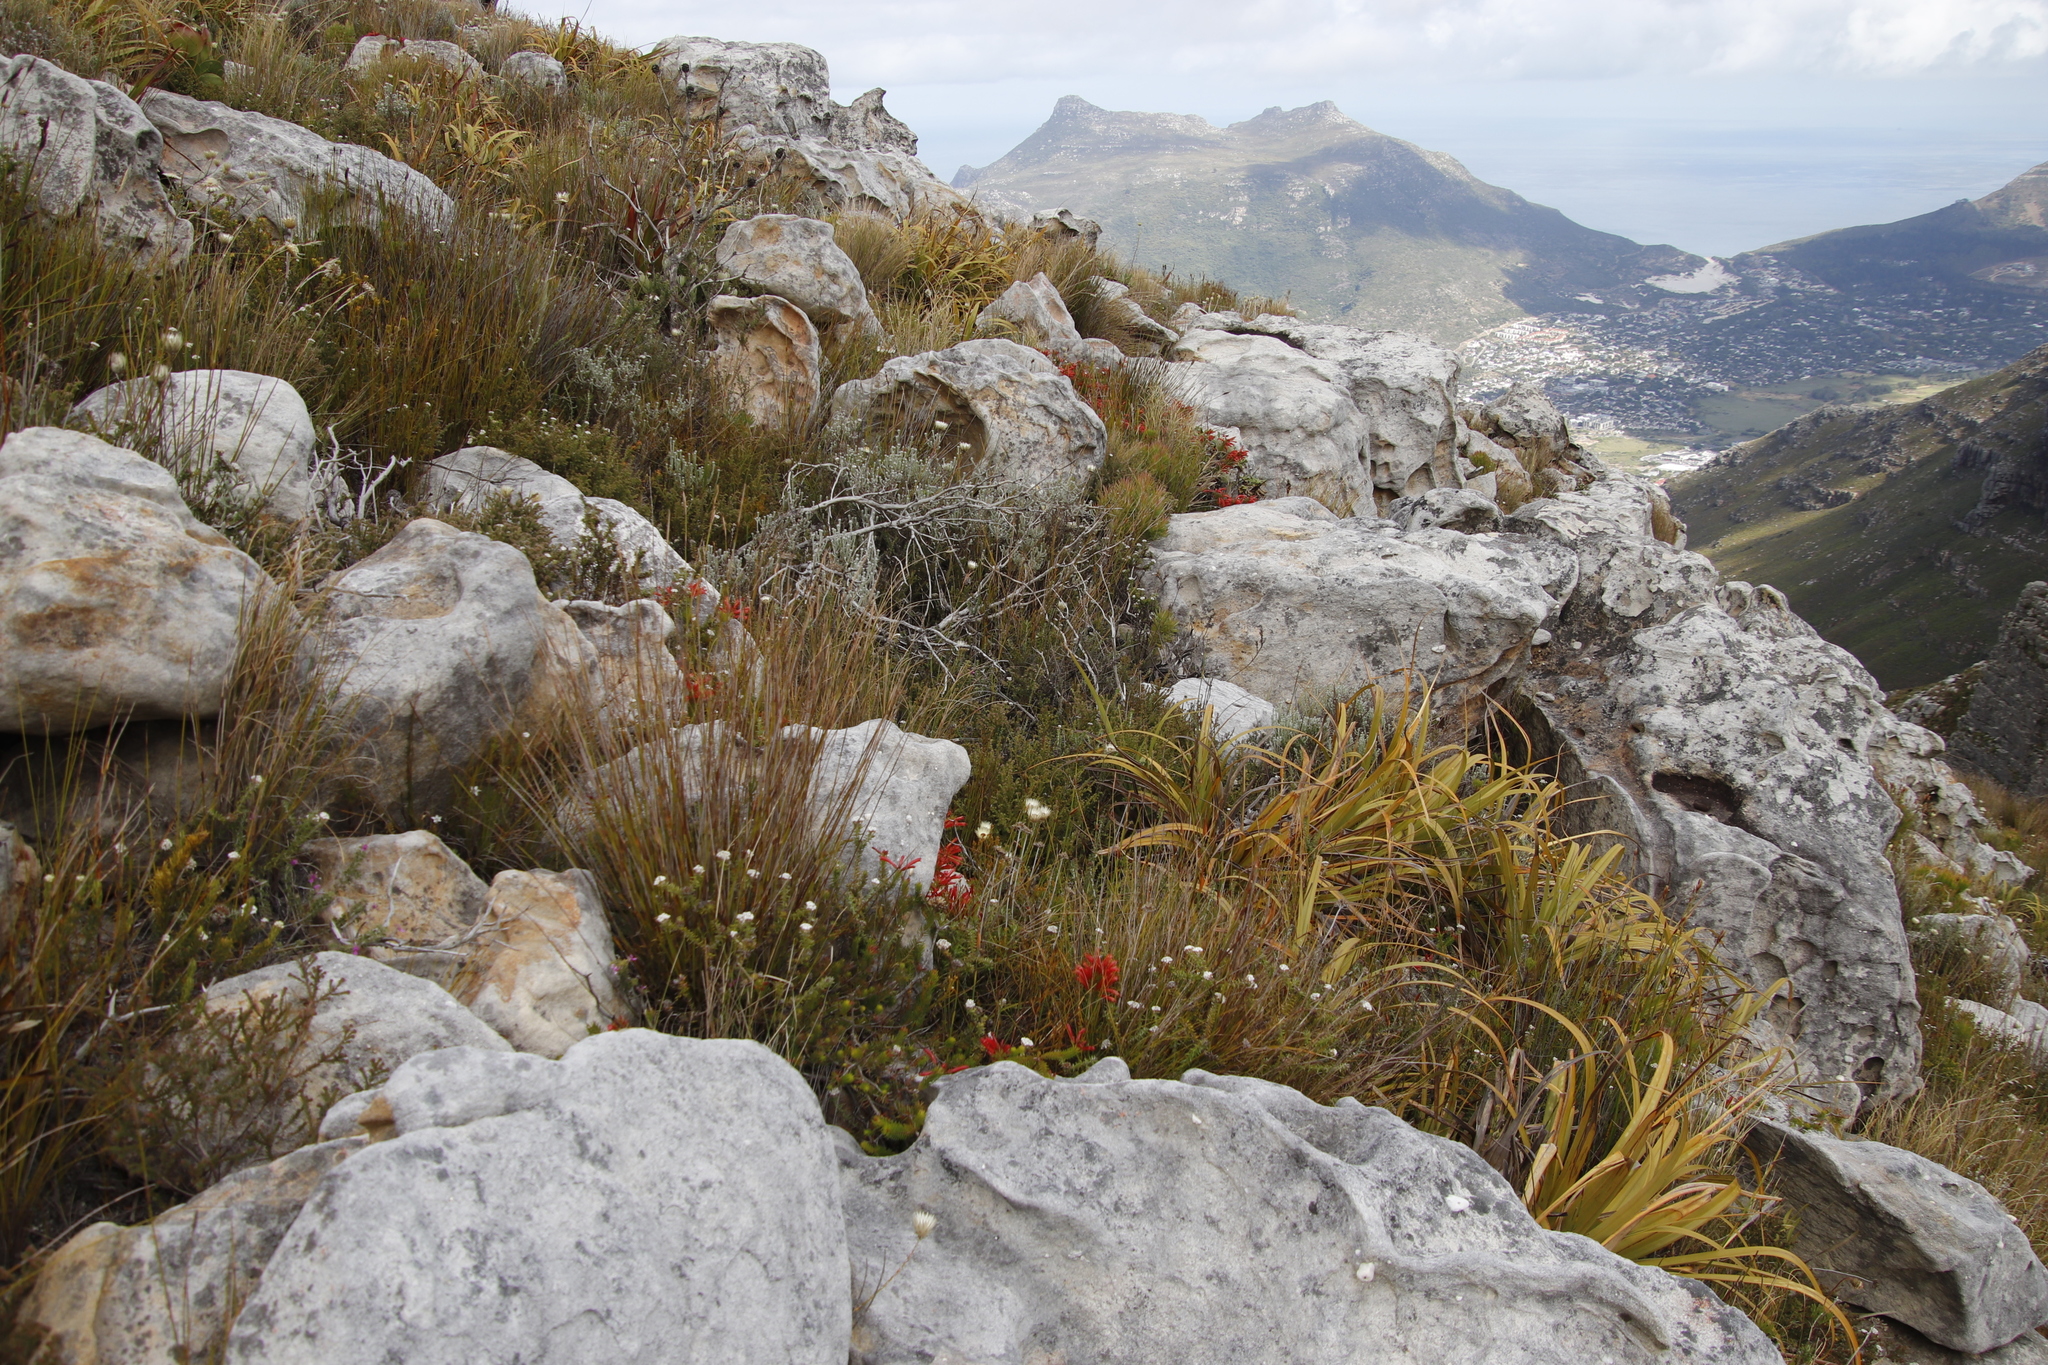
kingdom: Plantae
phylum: Tracheophyta
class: Magnoliopsida
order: Ericales
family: Ericaceae
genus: Erica
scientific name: Erica nevillei
